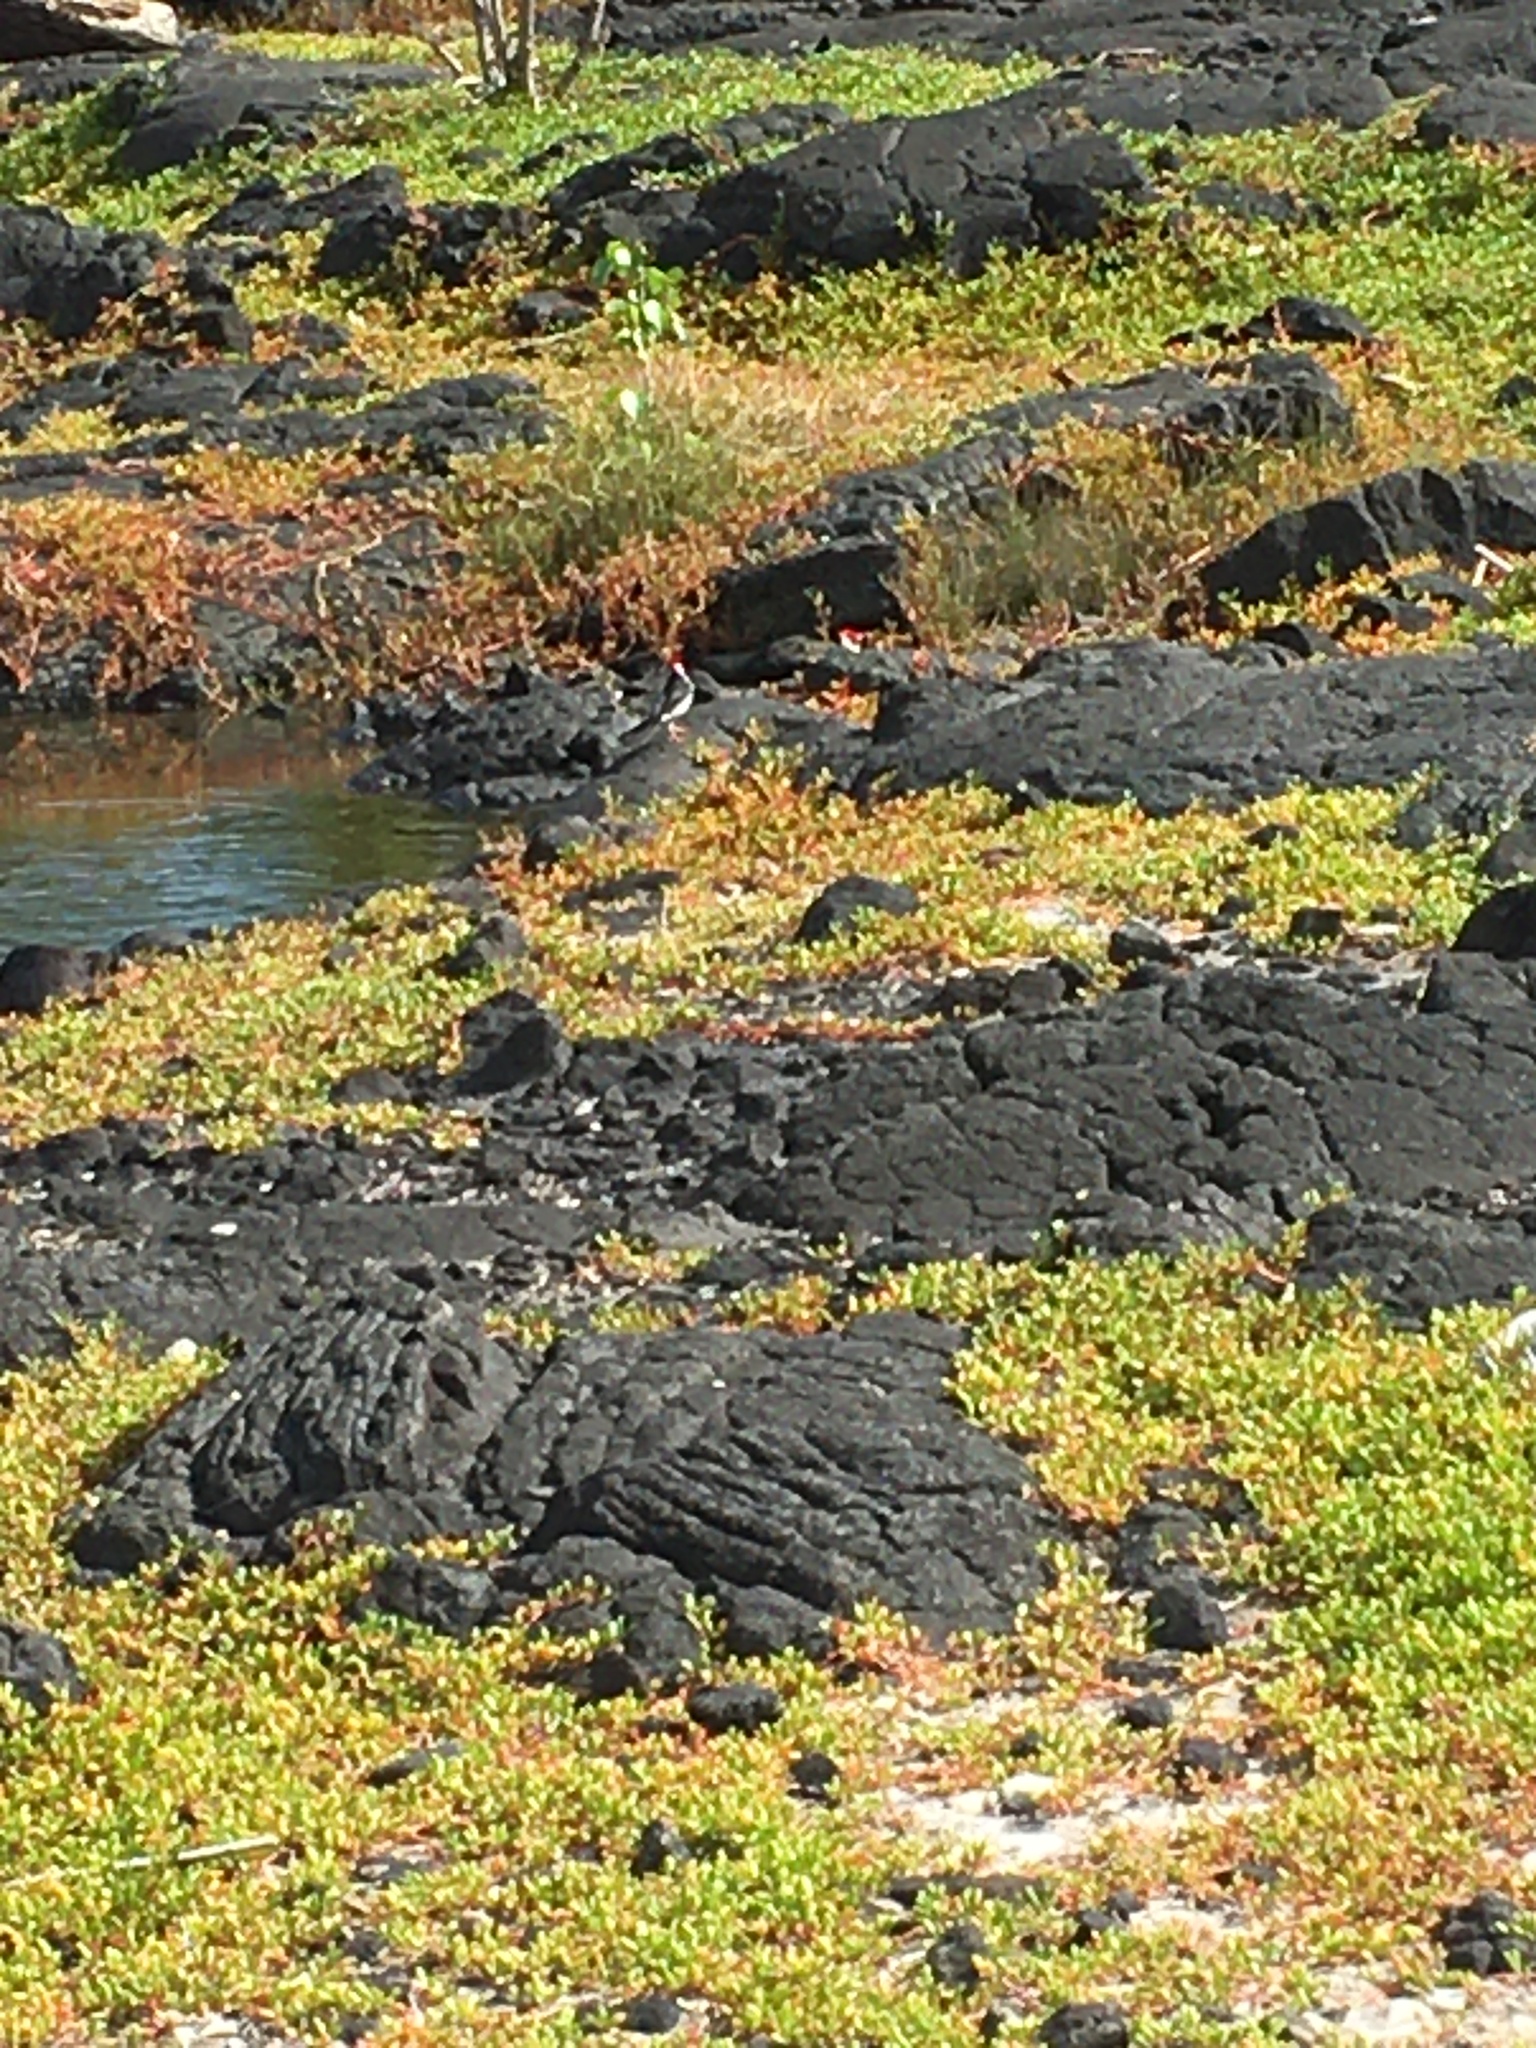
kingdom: Animalia
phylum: Chordata
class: Aves
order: Passeriformes
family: Thraupidae
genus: Paroaria
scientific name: Paroaria capitata
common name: Yellow-billed cardinal
